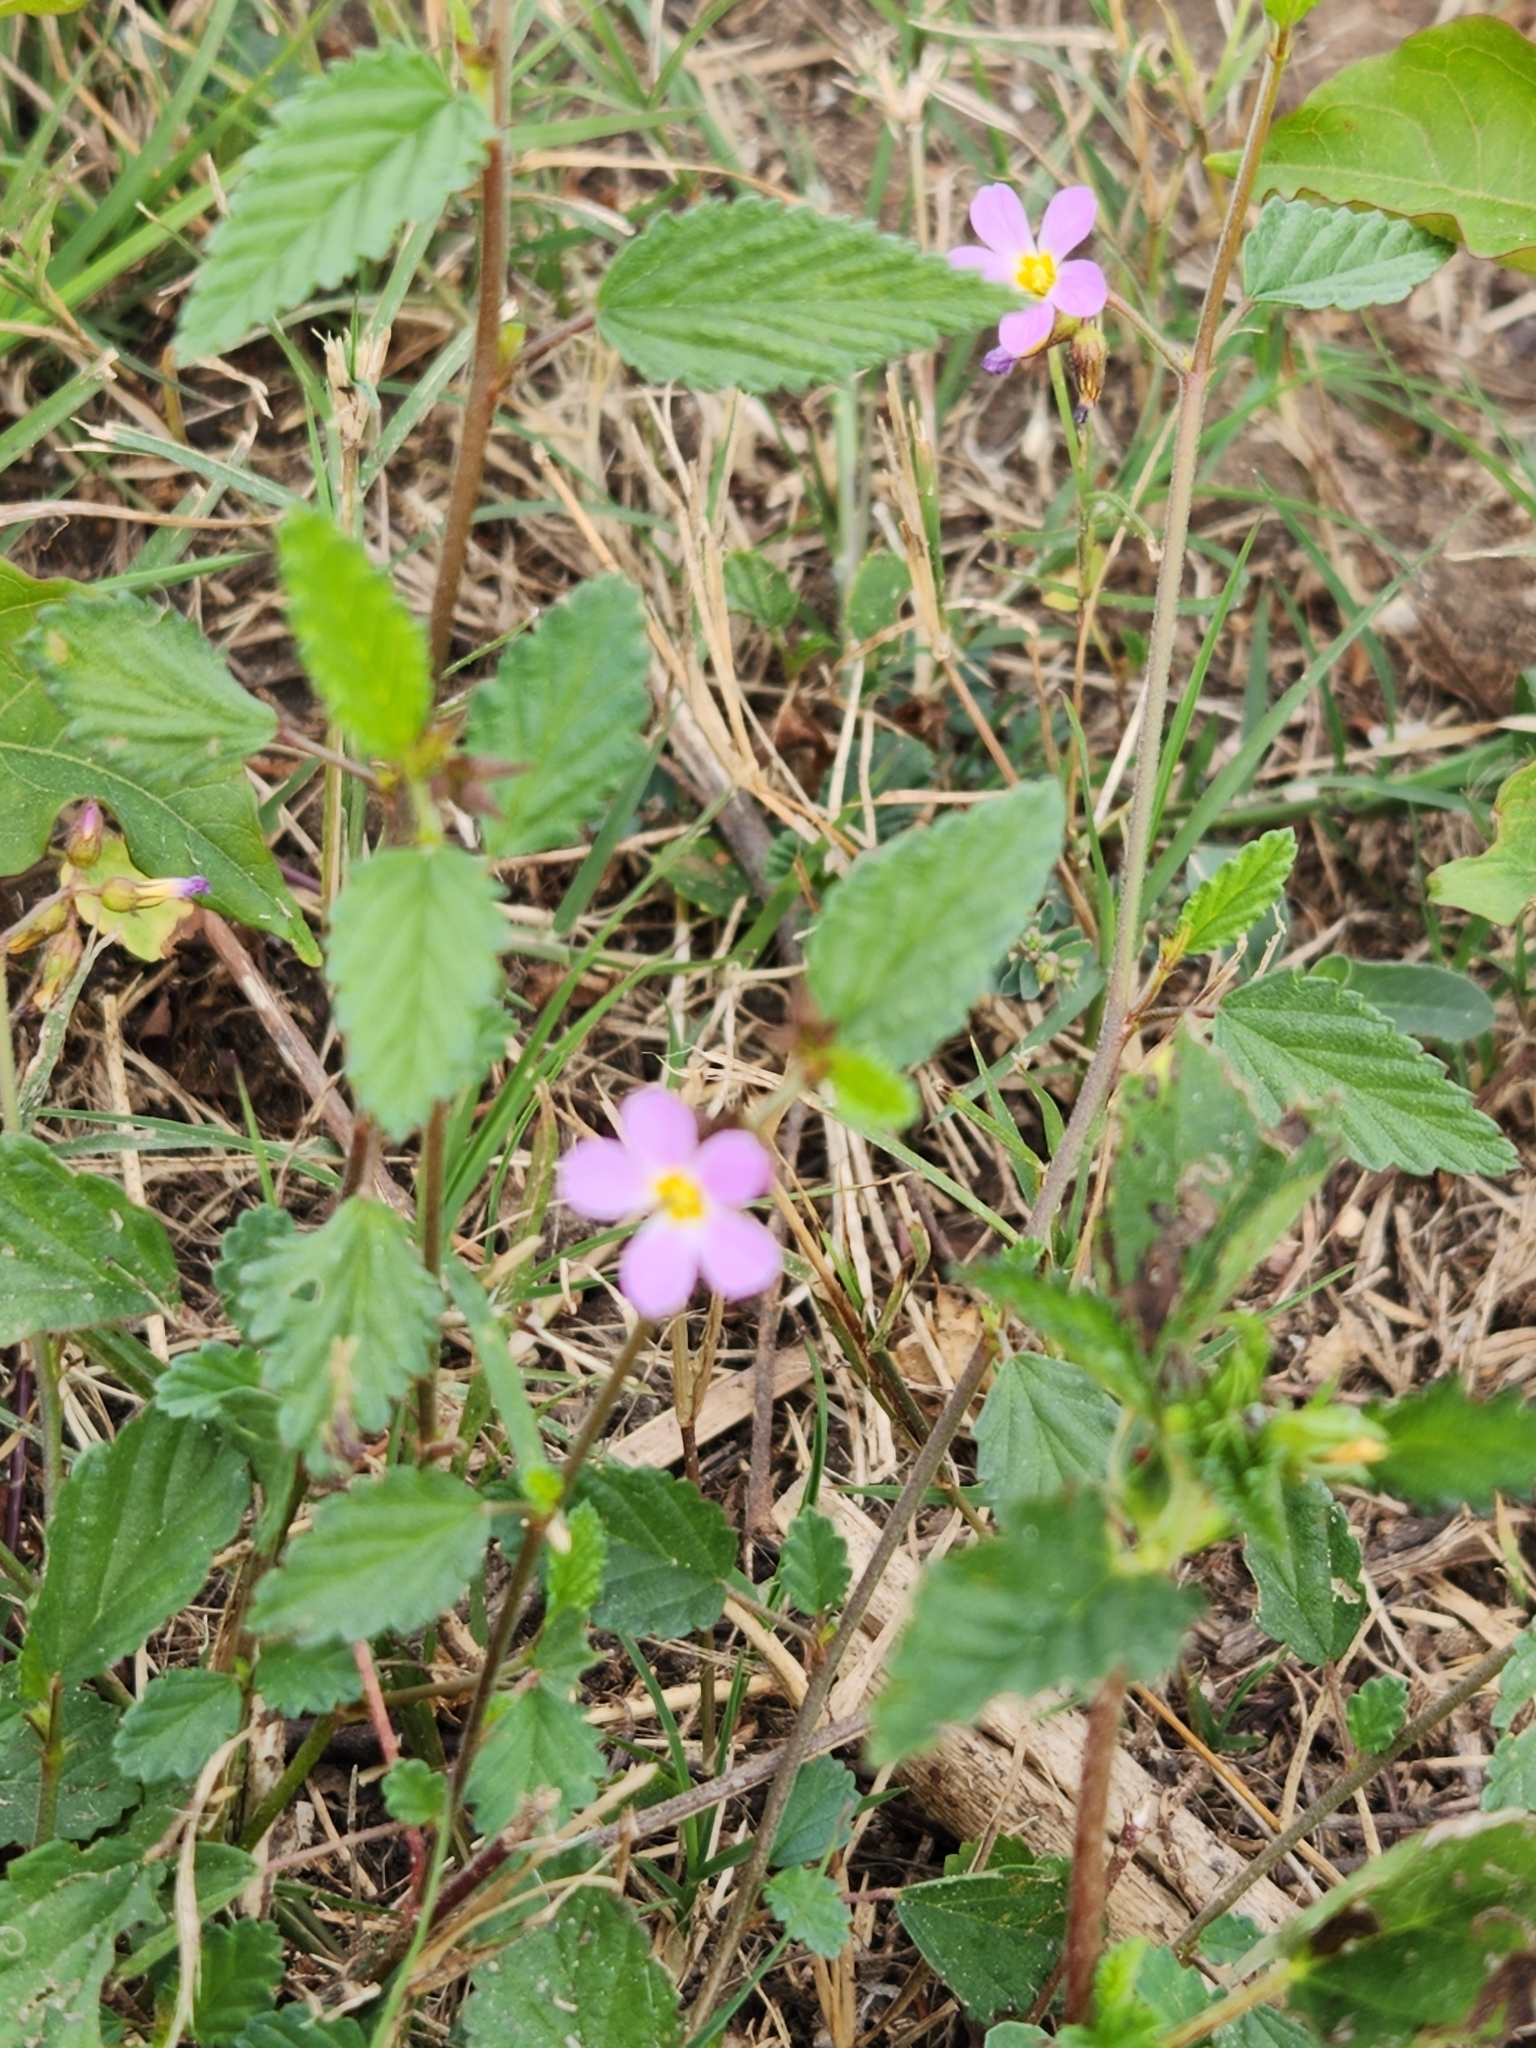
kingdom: Plantae
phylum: Tracheophyta
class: Magnoliopsida
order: Malvales
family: Malvaceae
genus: Melochia
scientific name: Melochia pyramidata
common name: Pyramidflower
